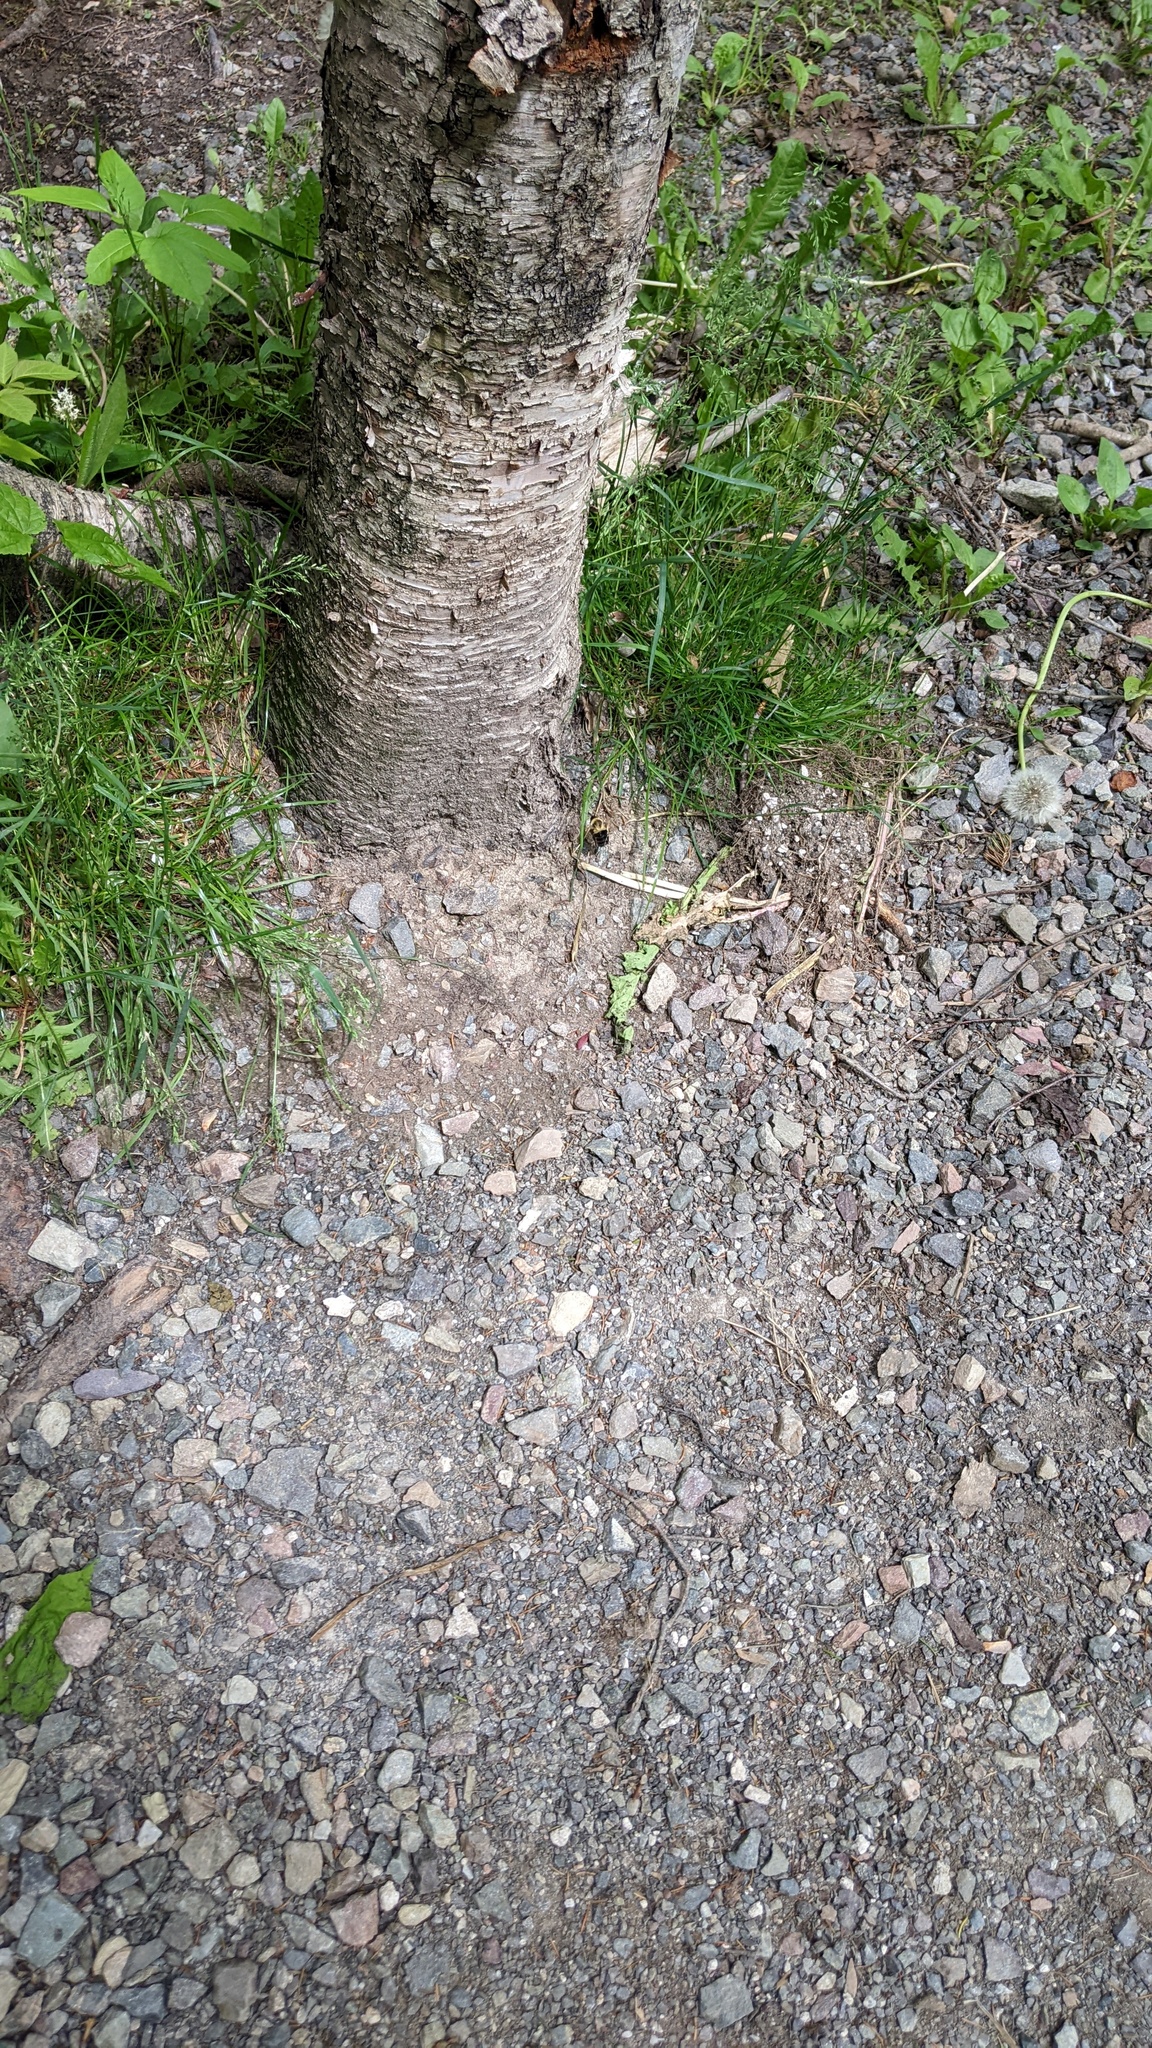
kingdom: Animalia
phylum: Arthropoda
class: Insecta
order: Hymenoptera
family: Apidae
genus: Bombus
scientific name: Bombus impatiens
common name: Common eastern bumble bee
